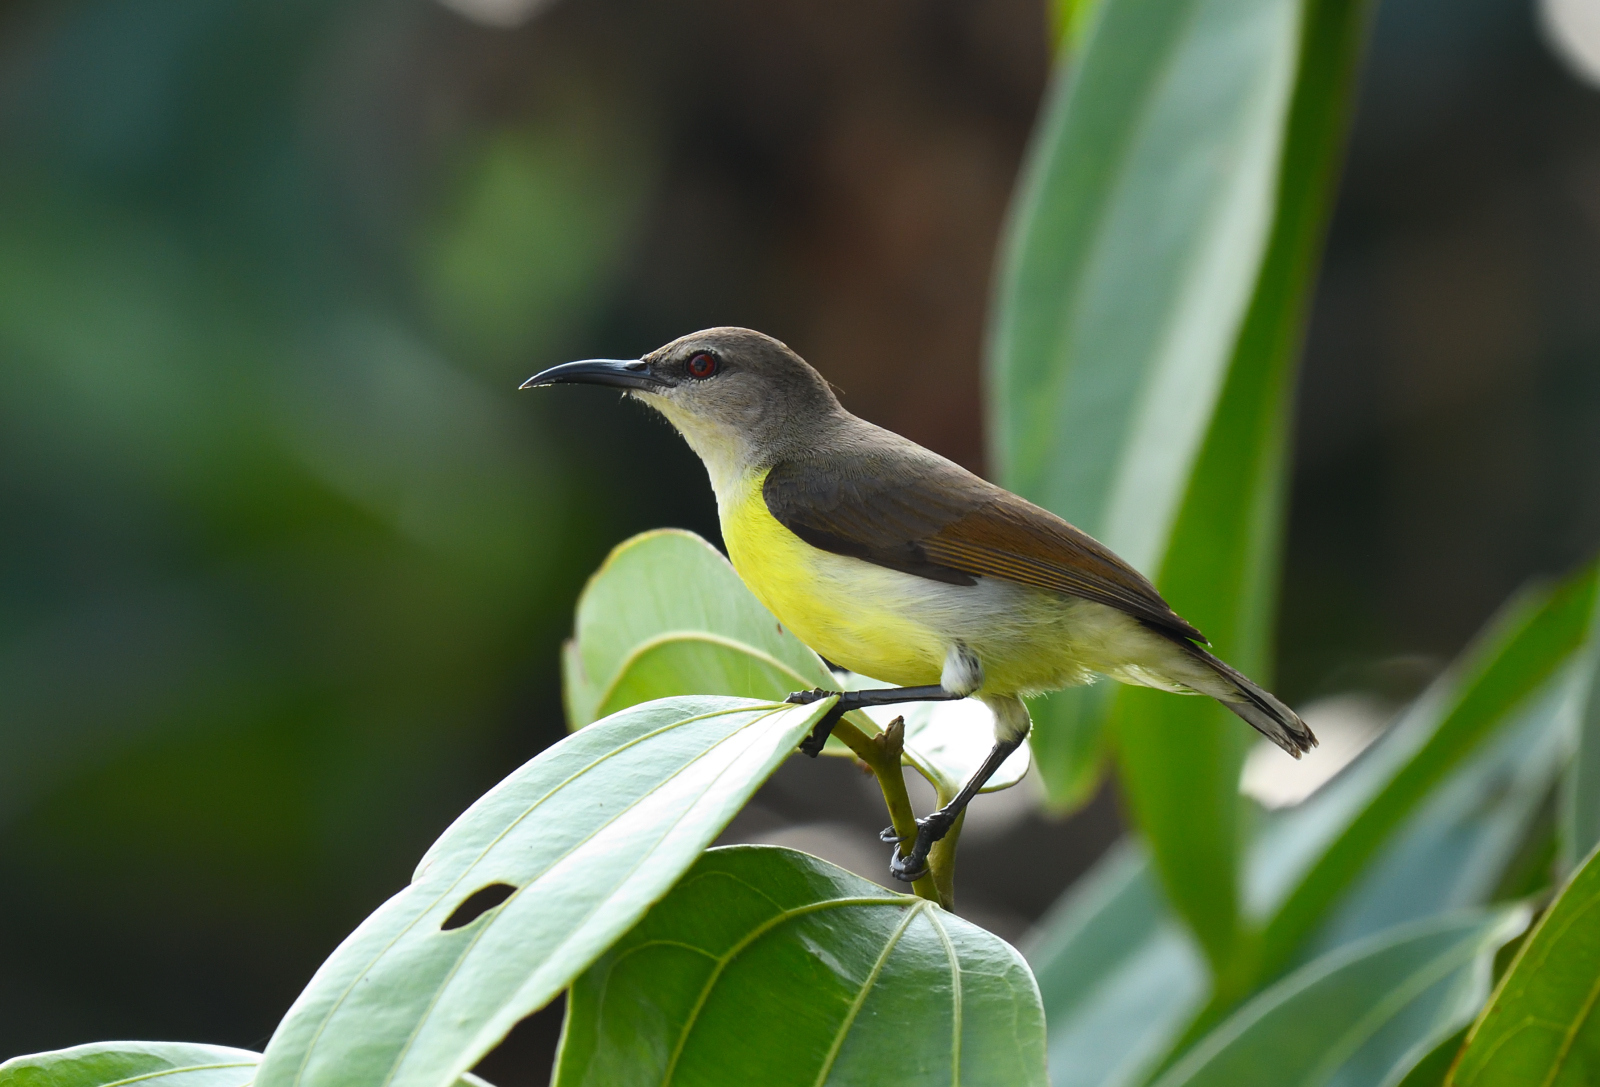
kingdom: Animalia
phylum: Chordata
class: Aves
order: Passeriformes
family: Nectariniidae
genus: Leptocoma
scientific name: Leptocoma zeylonica
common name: Purple-rumped sunbird
